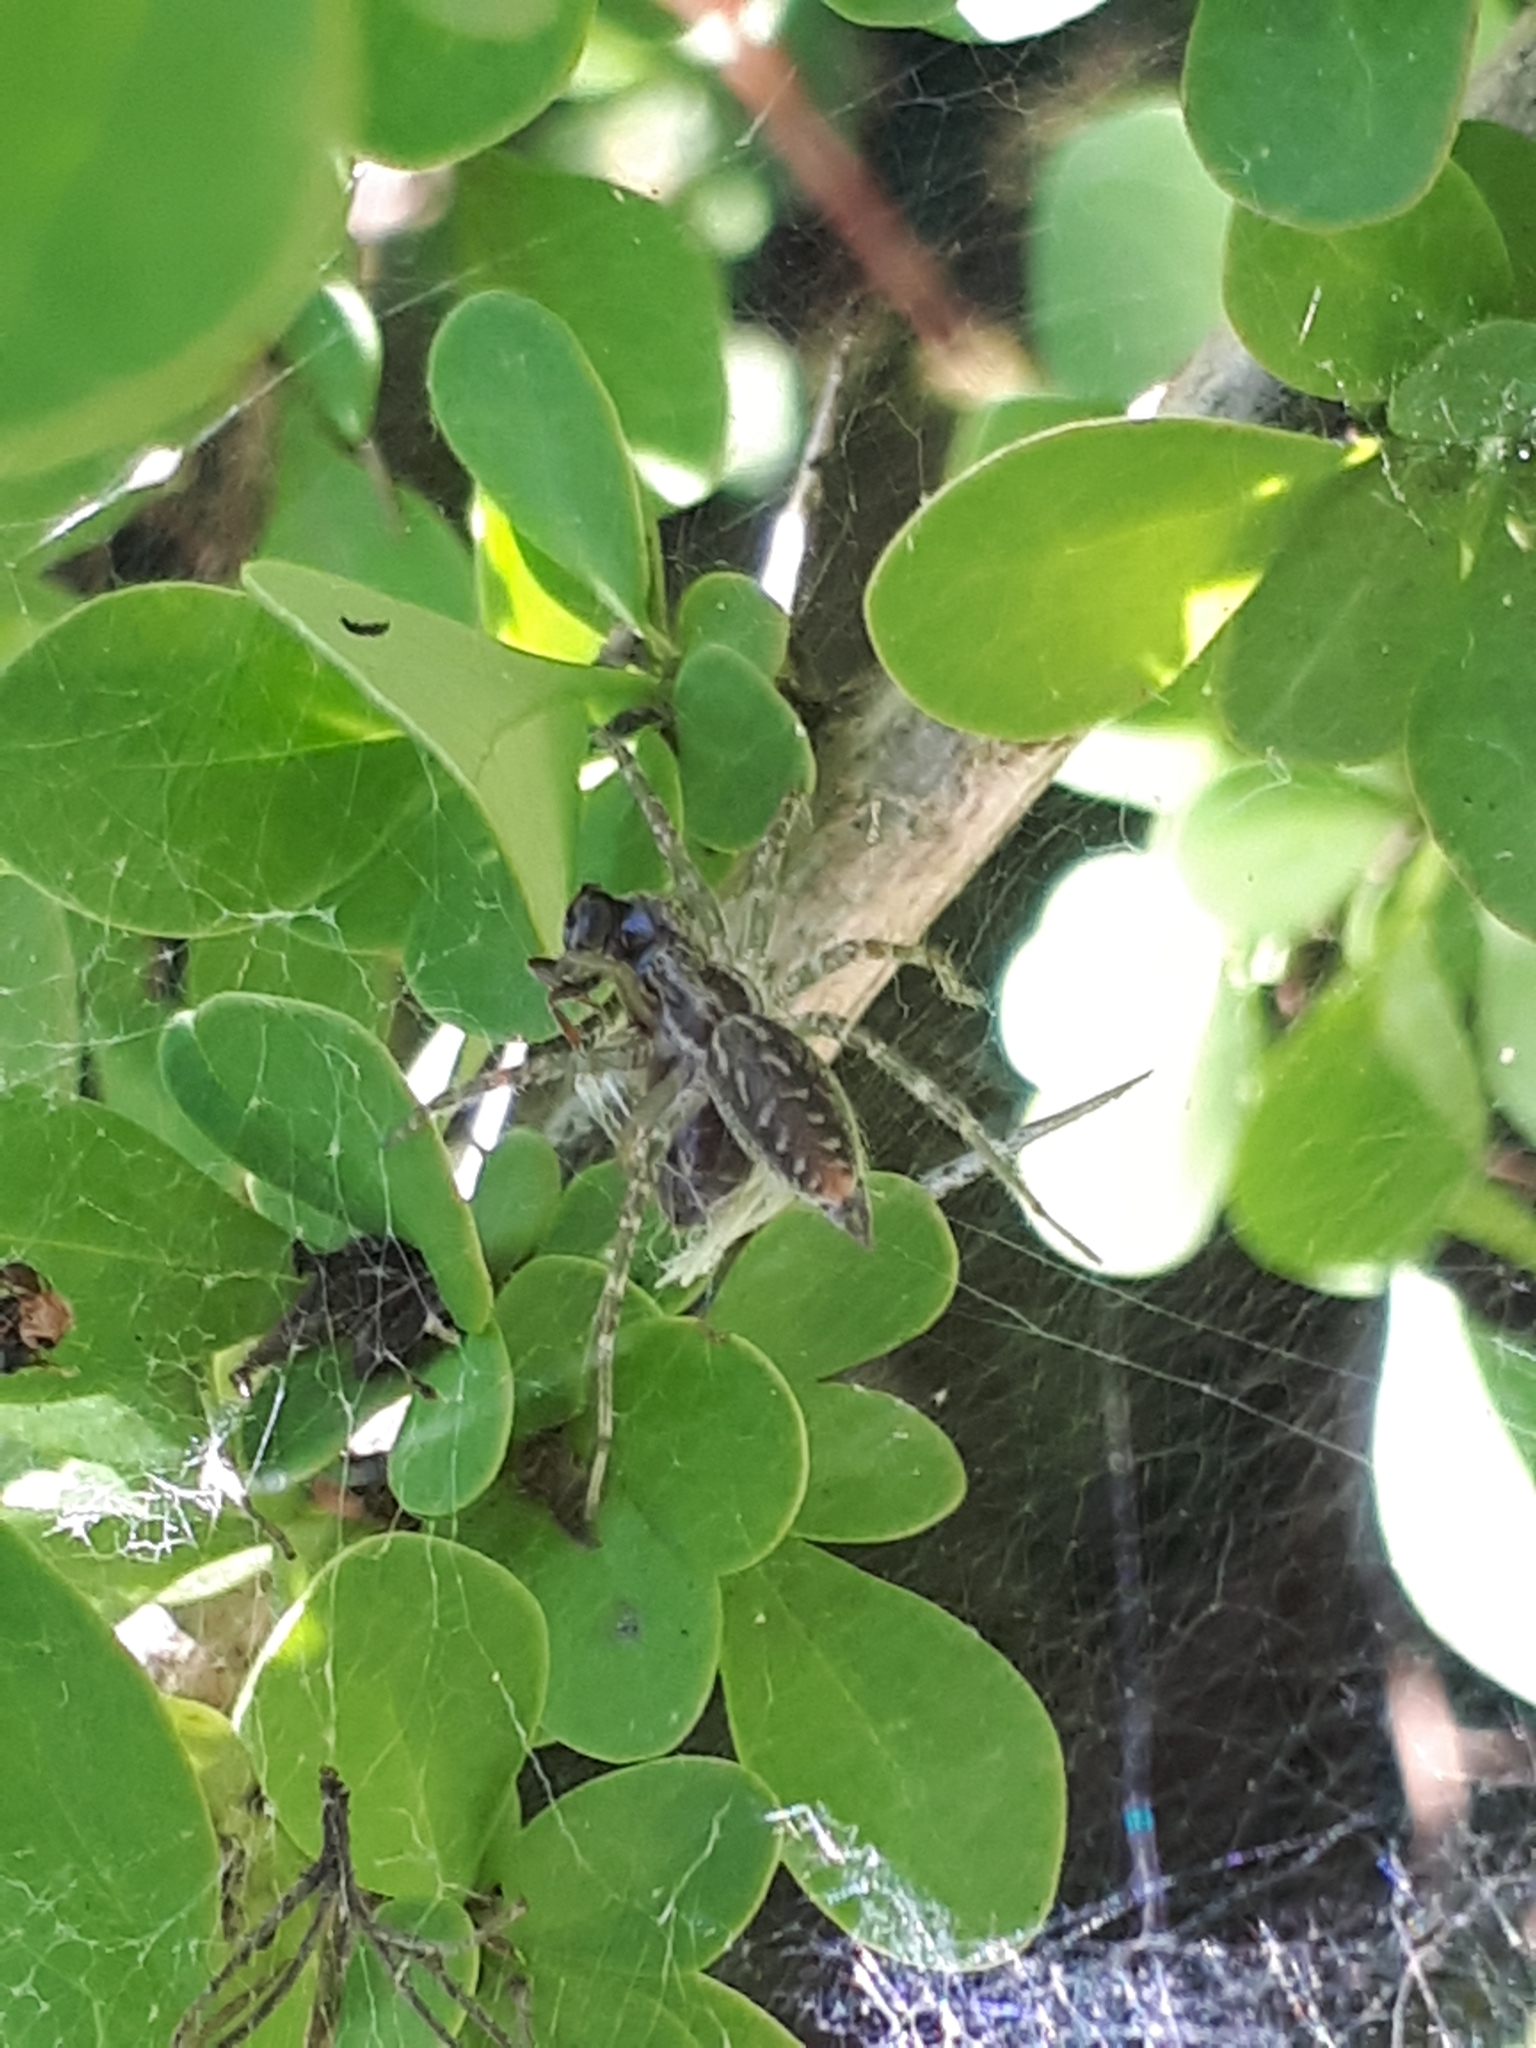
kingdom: Animalia
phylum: Arthropoda
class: Arachnida
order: Araneae
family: Agelenidae
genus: Allagelena
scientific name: Allagelena gracilens
